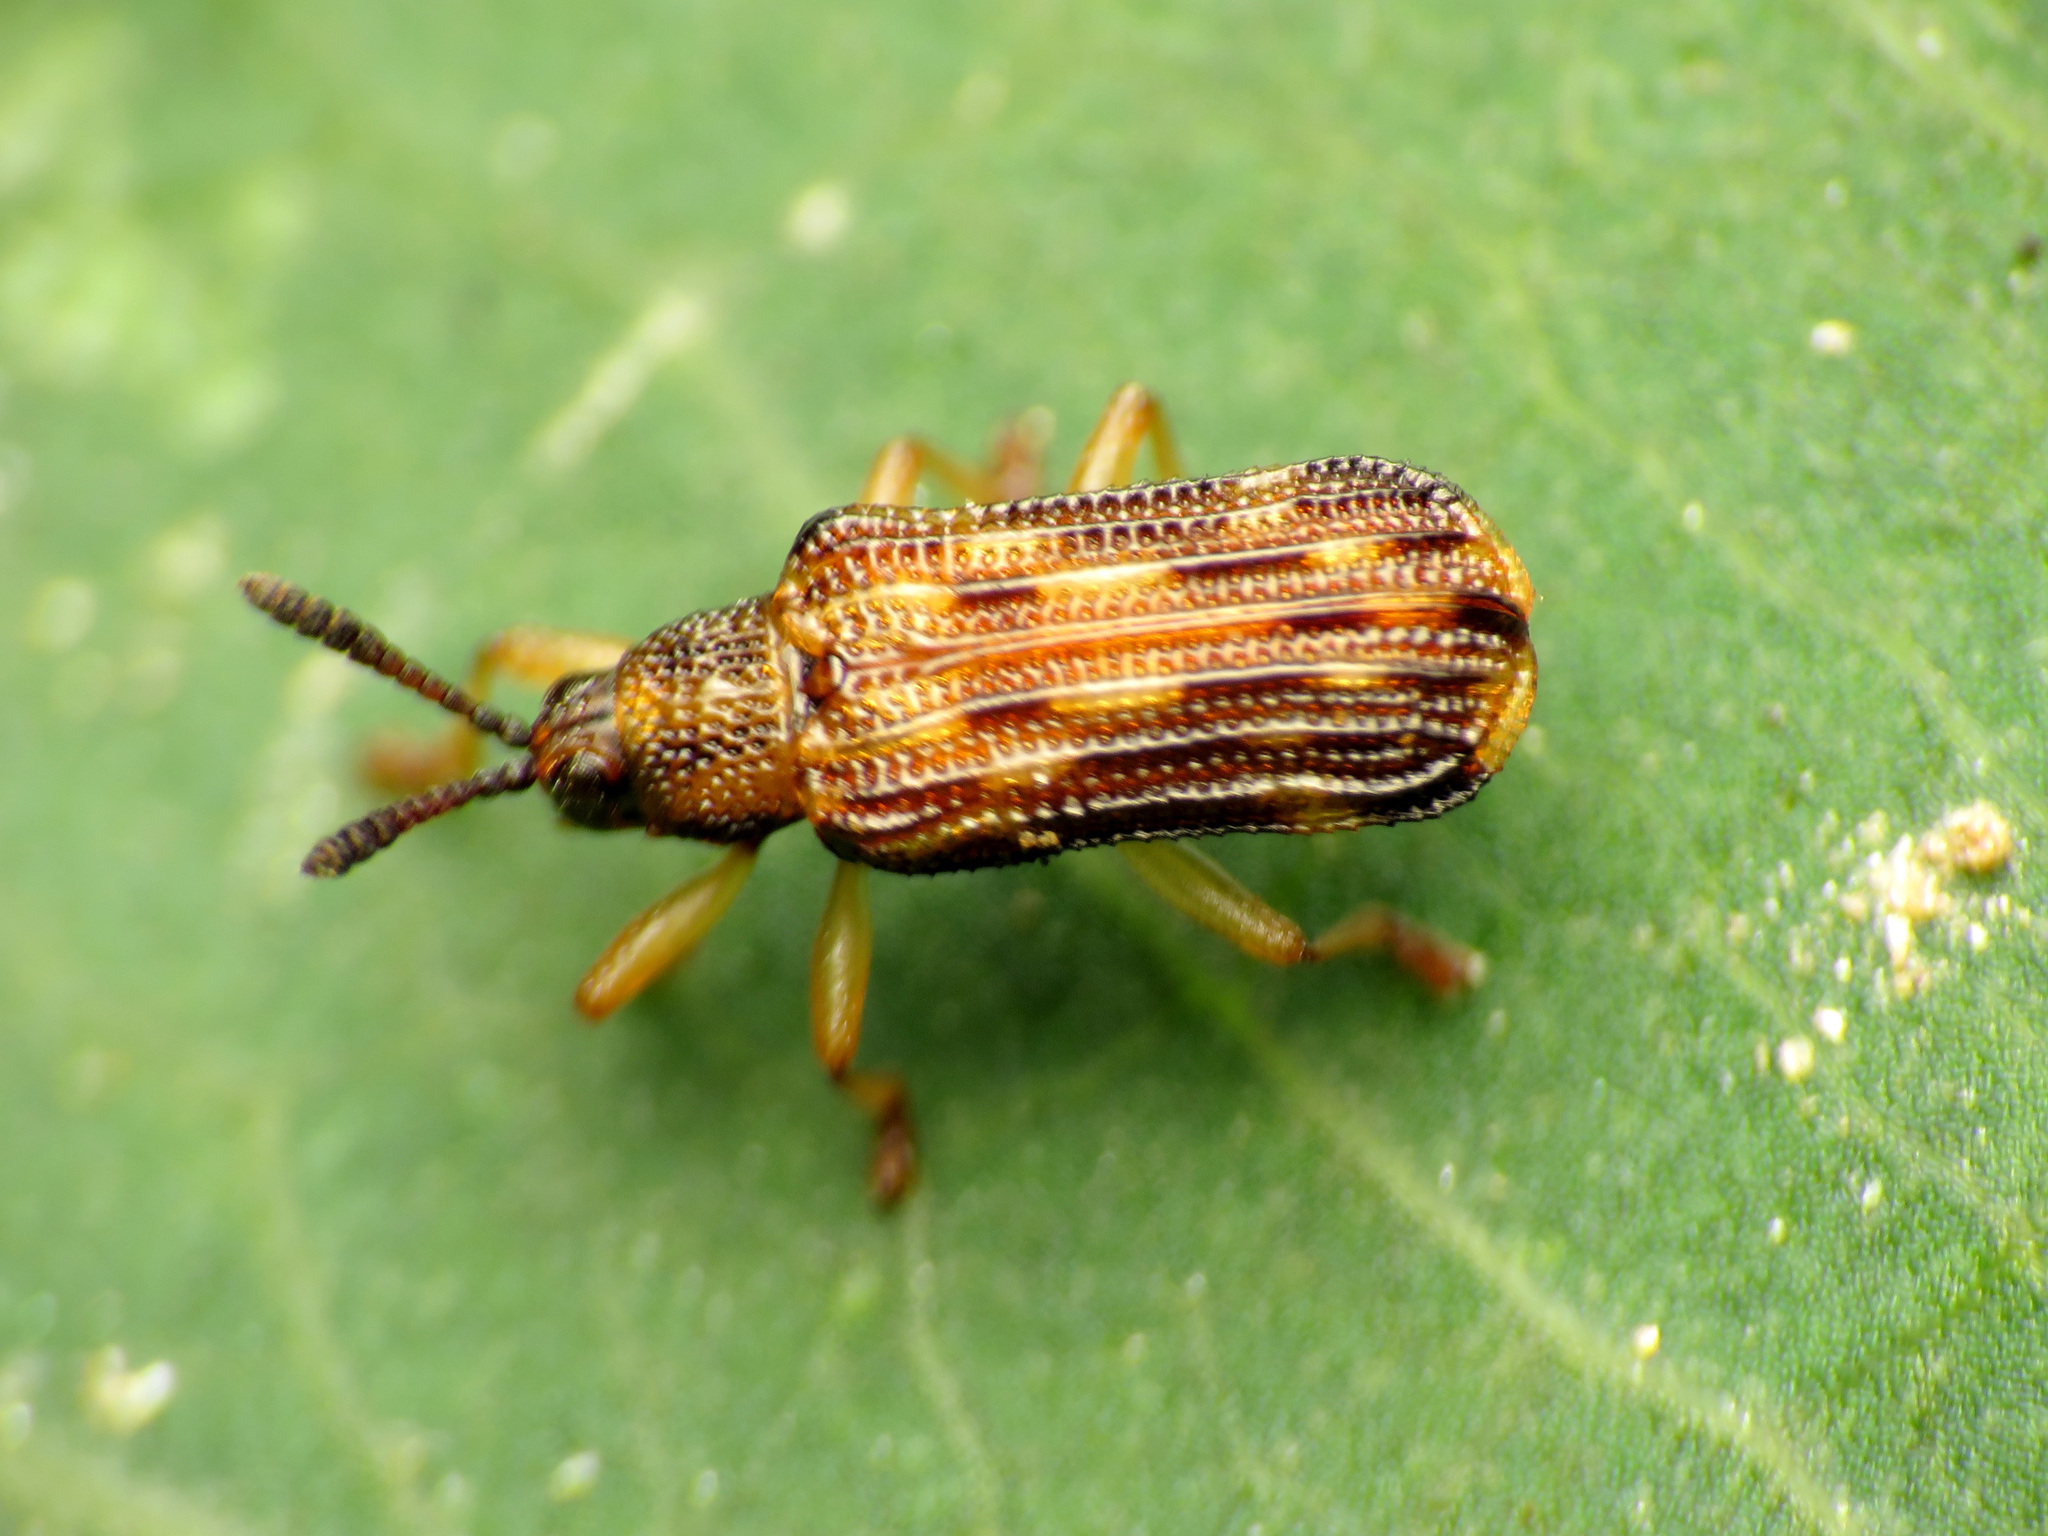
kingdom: Animalia
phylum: Arthropoda
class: Insecta
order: Coleoptera
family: Chrysomelidae
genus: Sumitrosis
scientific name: Sumitrosis inaequalis
